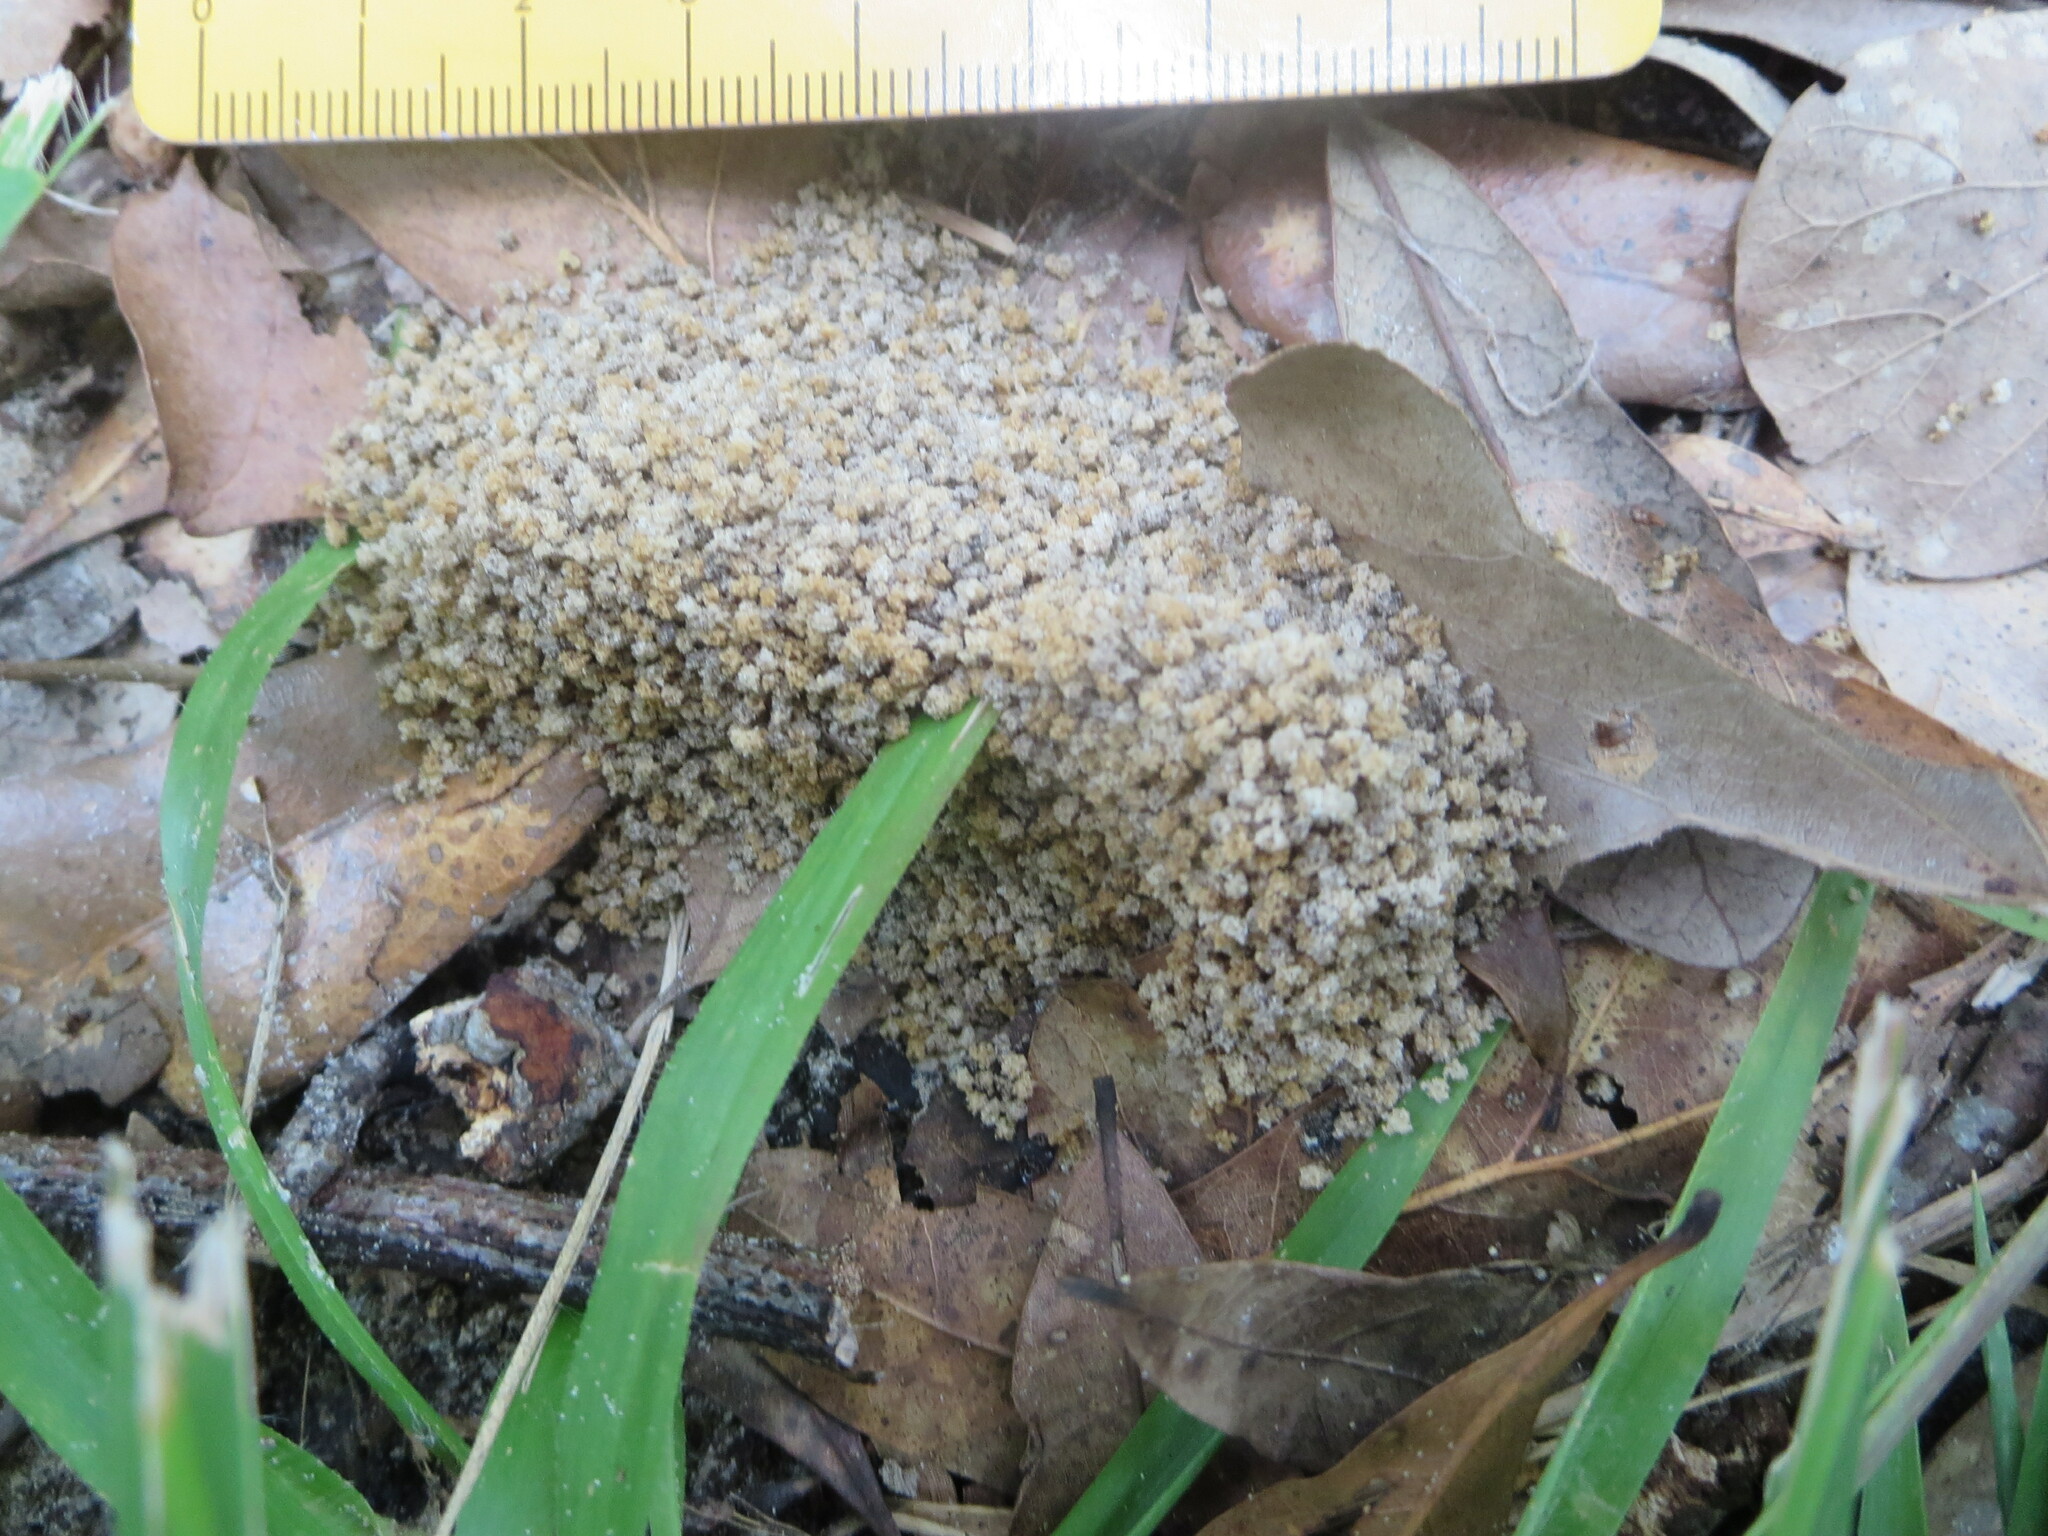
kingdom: Animalia
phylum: Arthropoda
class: Insecta
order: Hymenoptera
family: Formicidae
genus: Trachymyrmex
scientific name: Trachymyrmex septentrionalis
